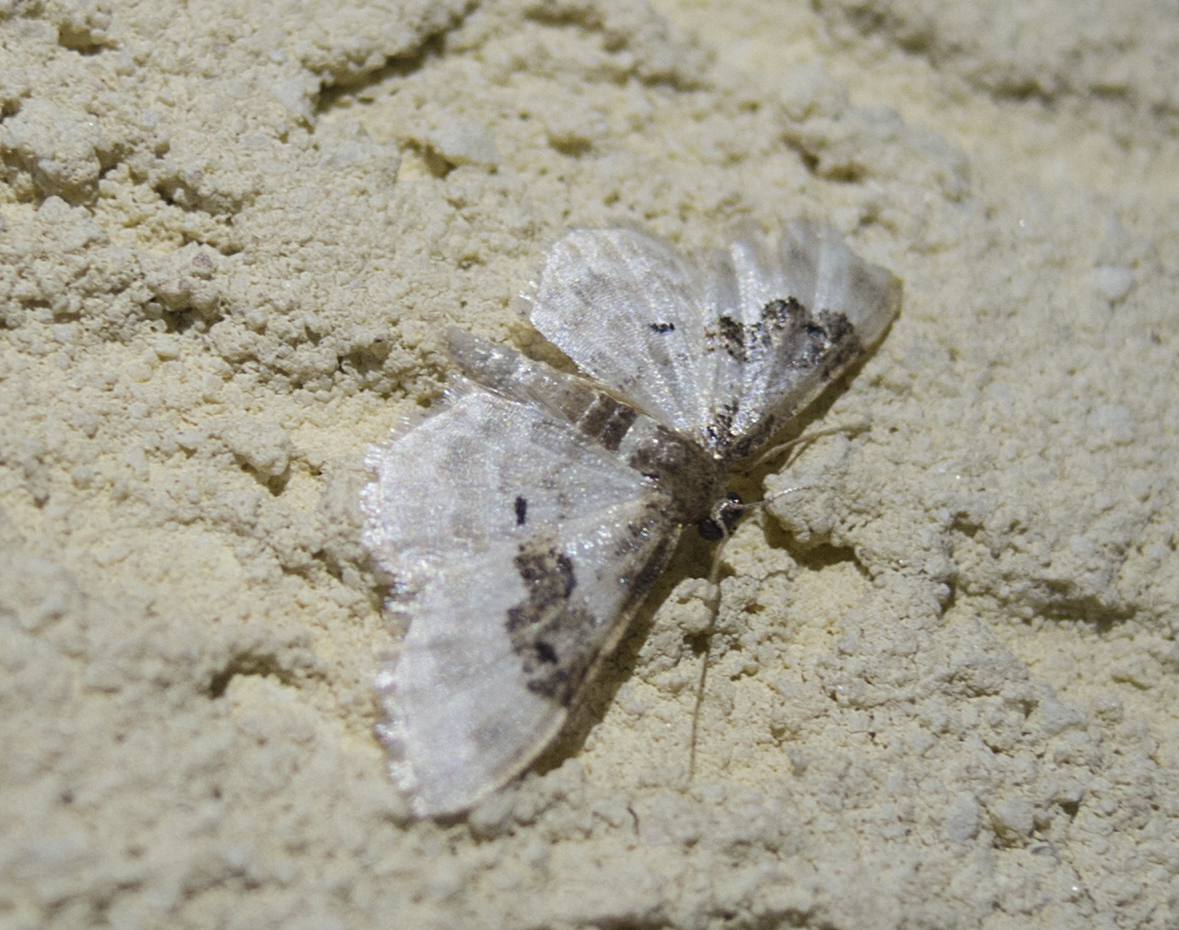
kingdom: Animalia
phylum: Arthropoda
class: Insecta
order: Lepidoptera
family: Geometridae
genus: Idaea
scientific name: Idaea rusticata
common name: Least carpet
